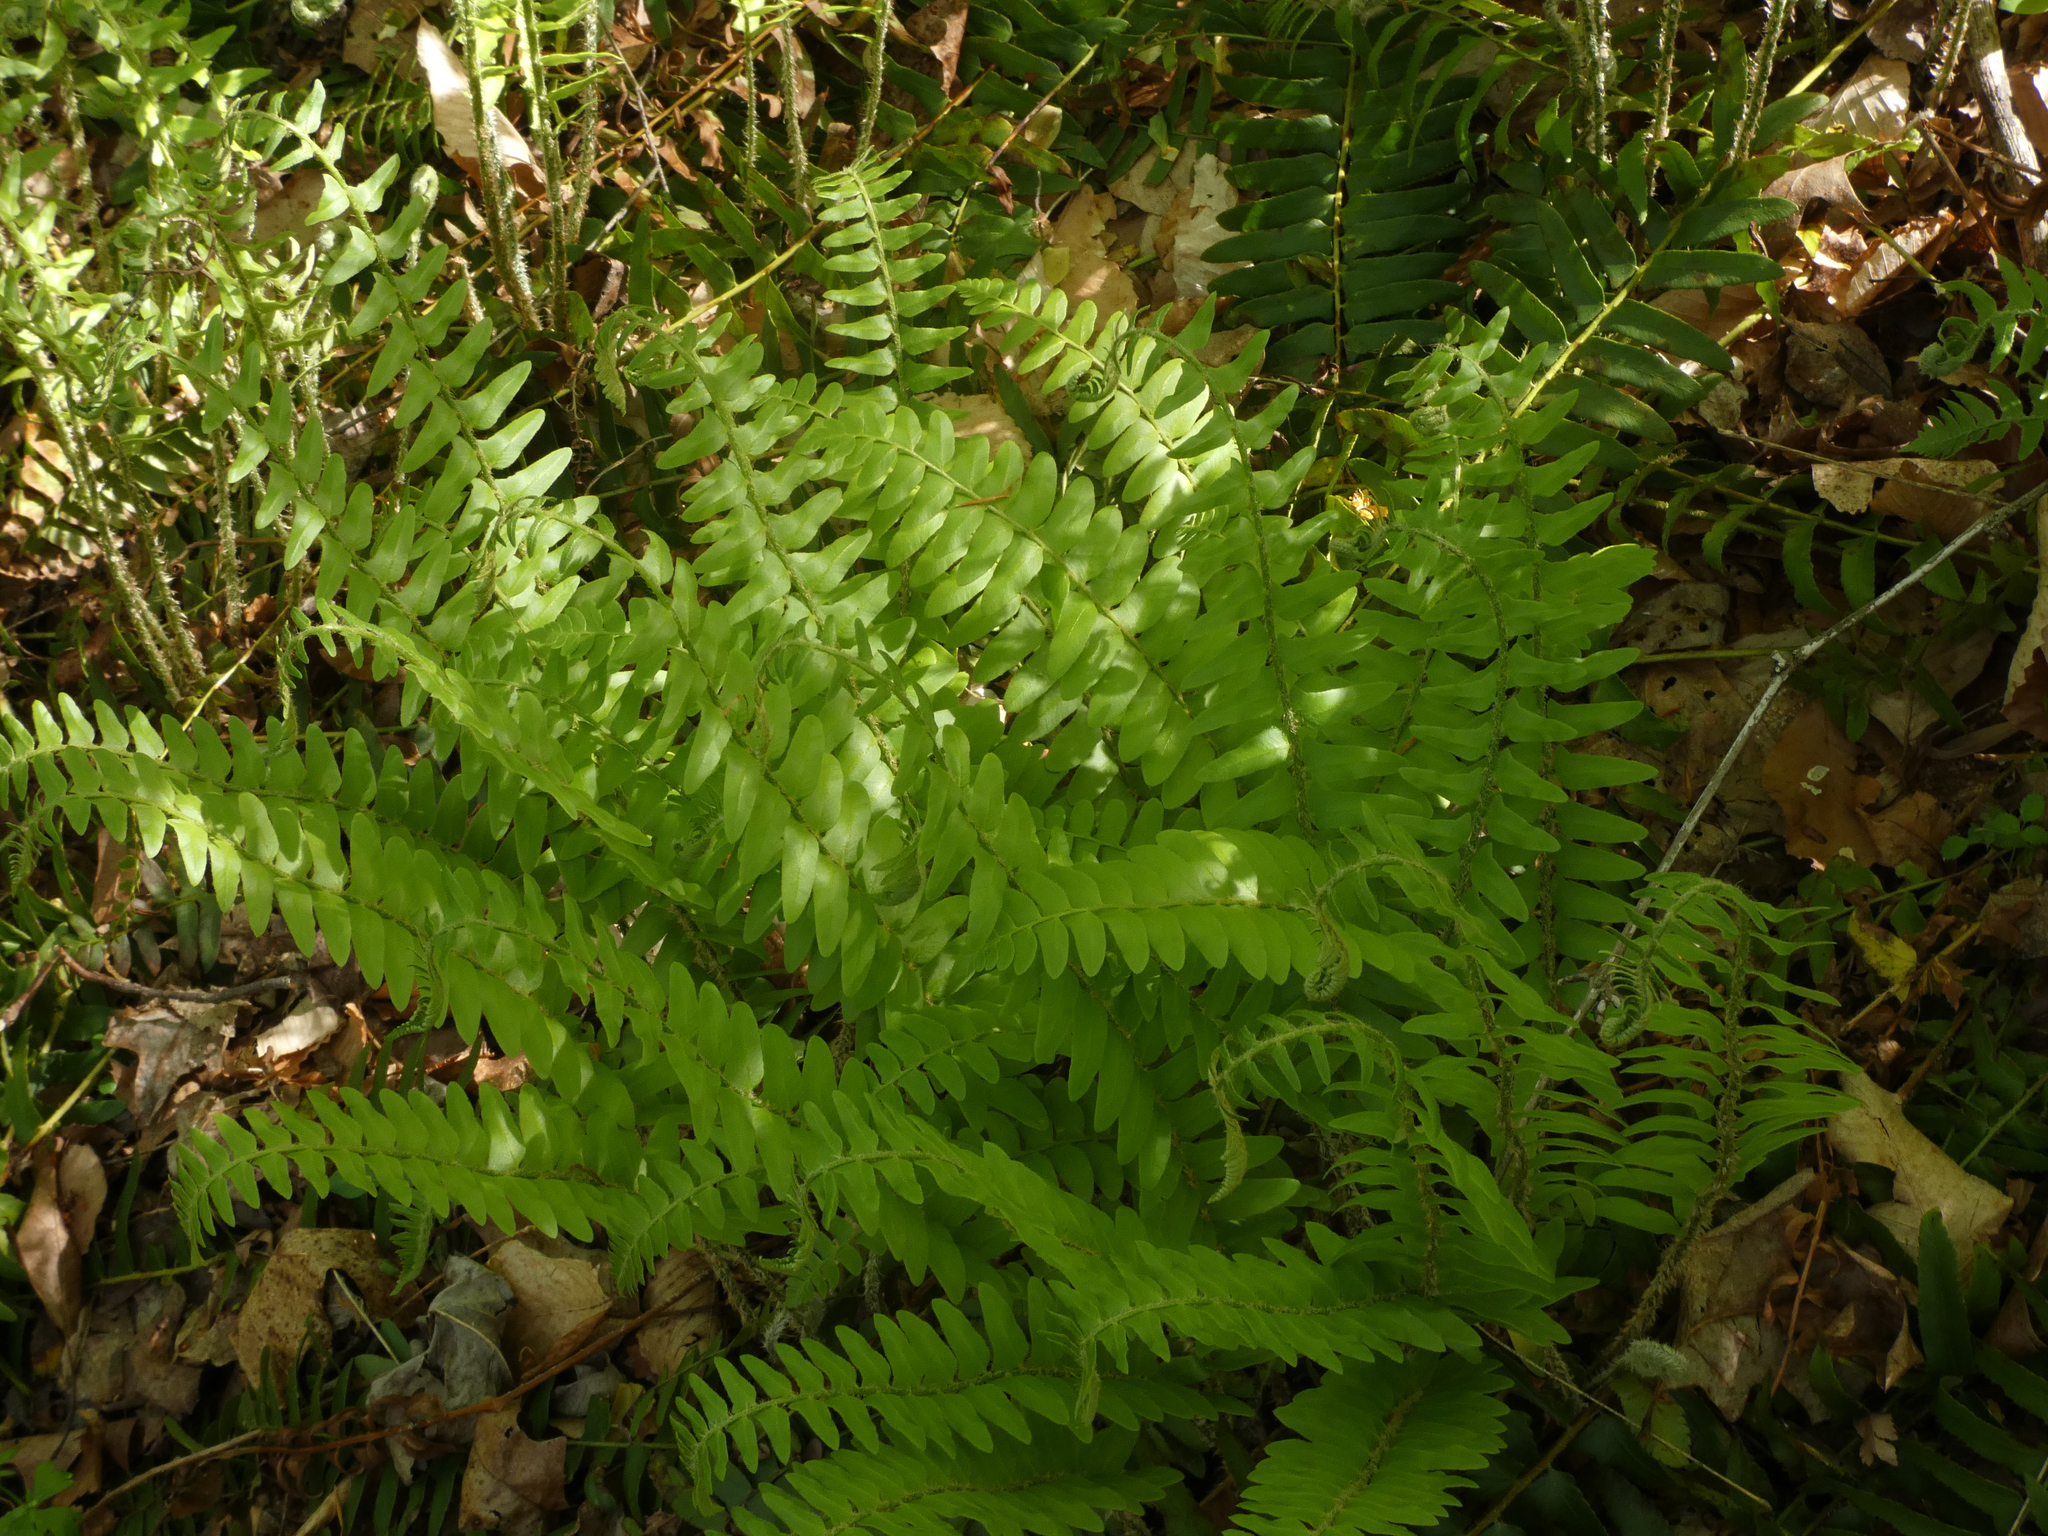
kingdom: Plantae
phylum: Tracheophyta
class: Polypodiopsida
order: Polypodiales
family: Dryopteridaceae
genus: Polystichum
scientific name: Polystichum acrostichoides
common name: Christmas fern
